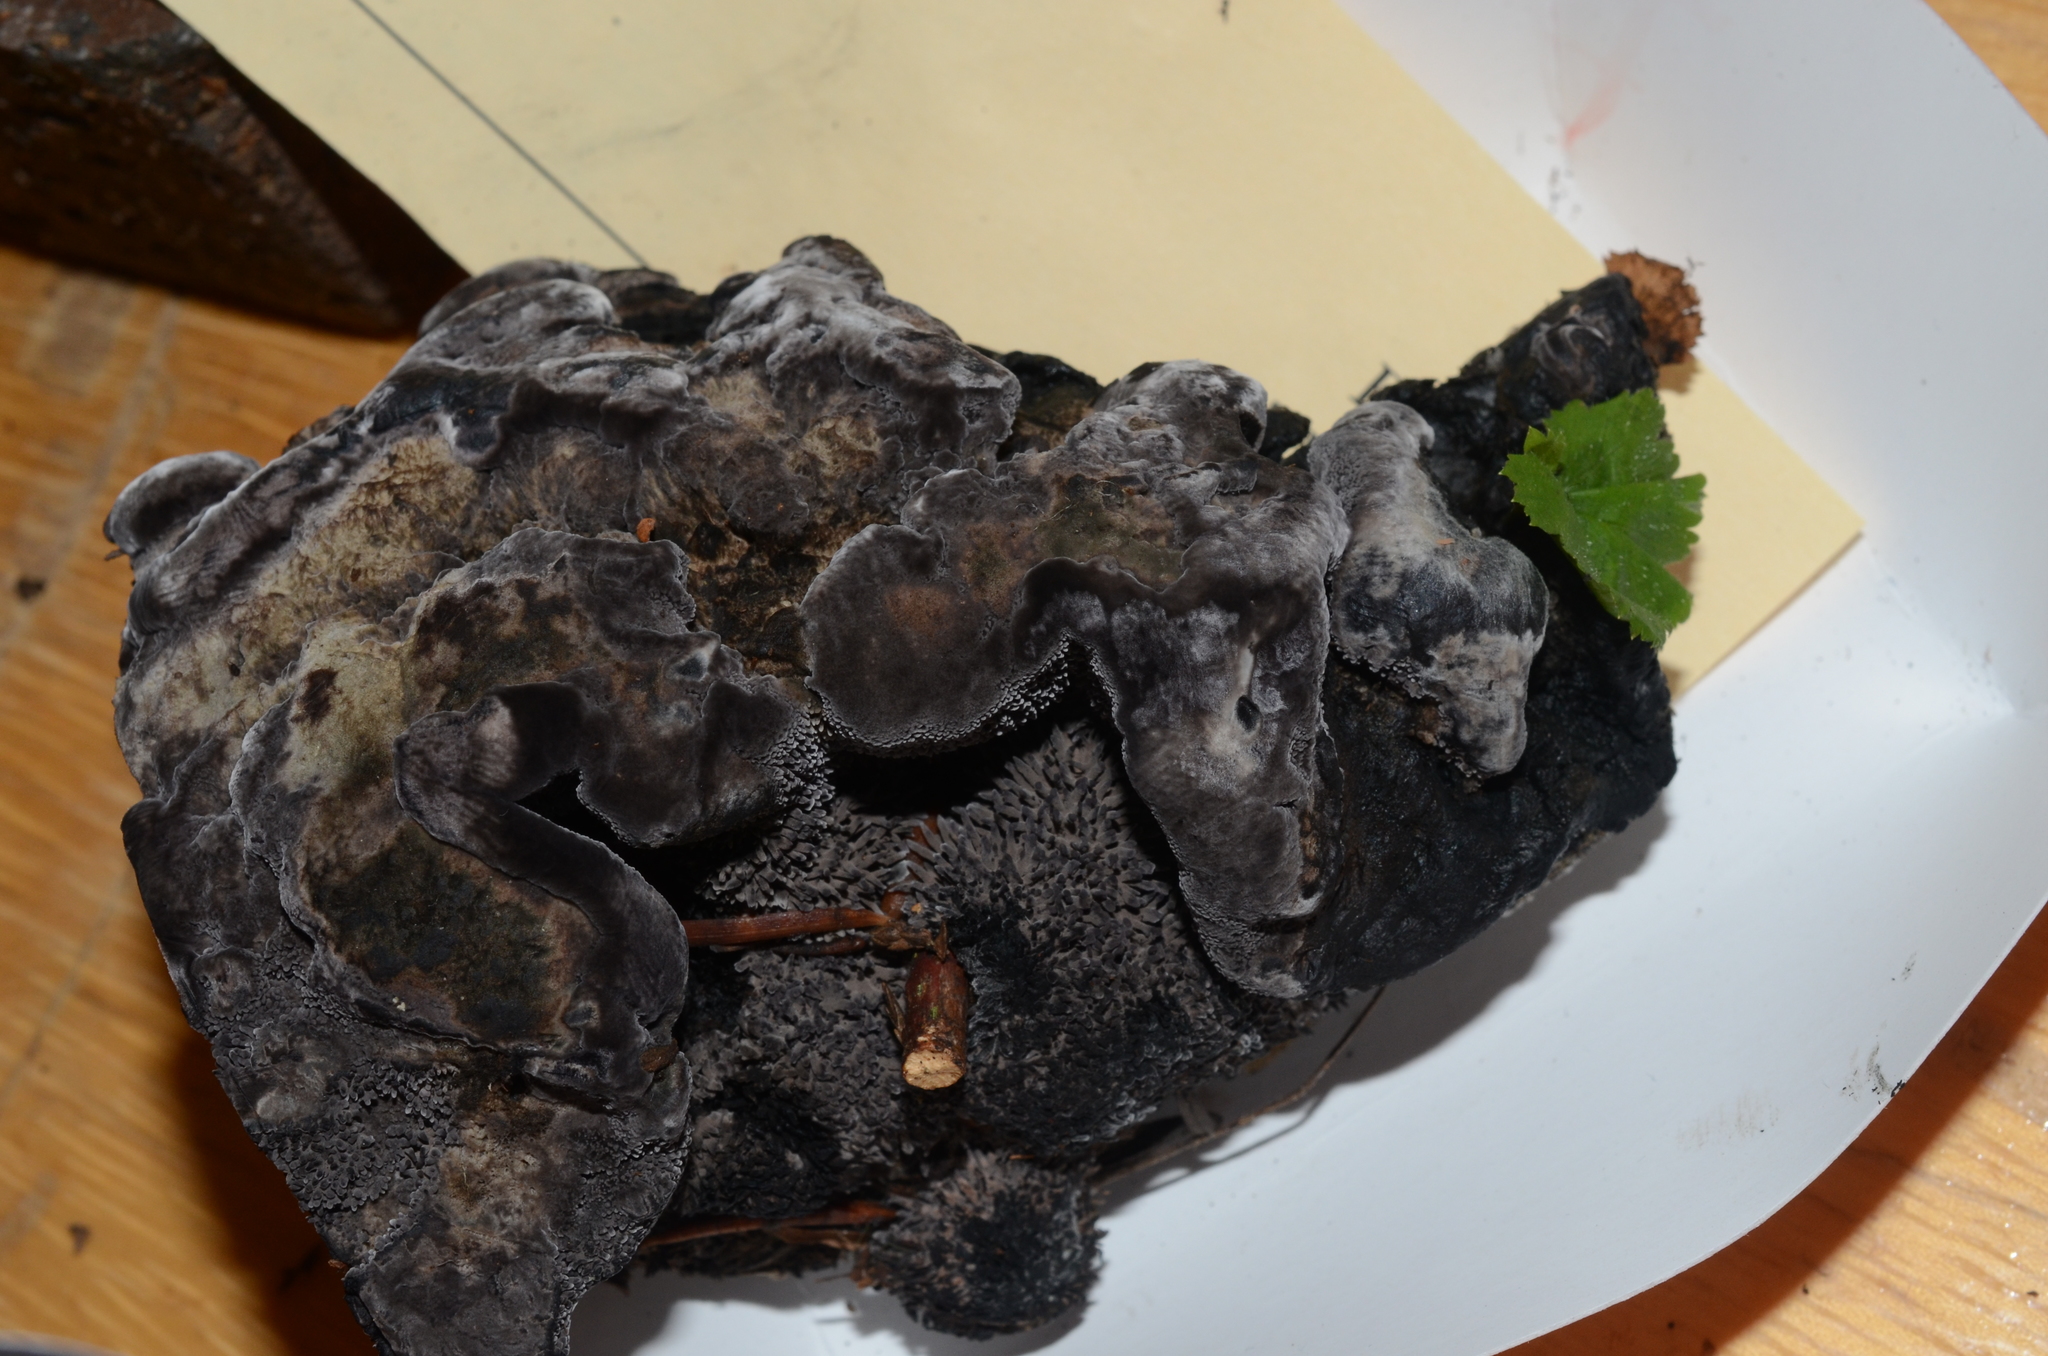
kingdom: Fungi
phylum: Basidiomycota
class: Agaricomycetes
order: Thelephorales
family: Bankeraceae
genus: Hydnellum
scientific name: Hydnellum regium
